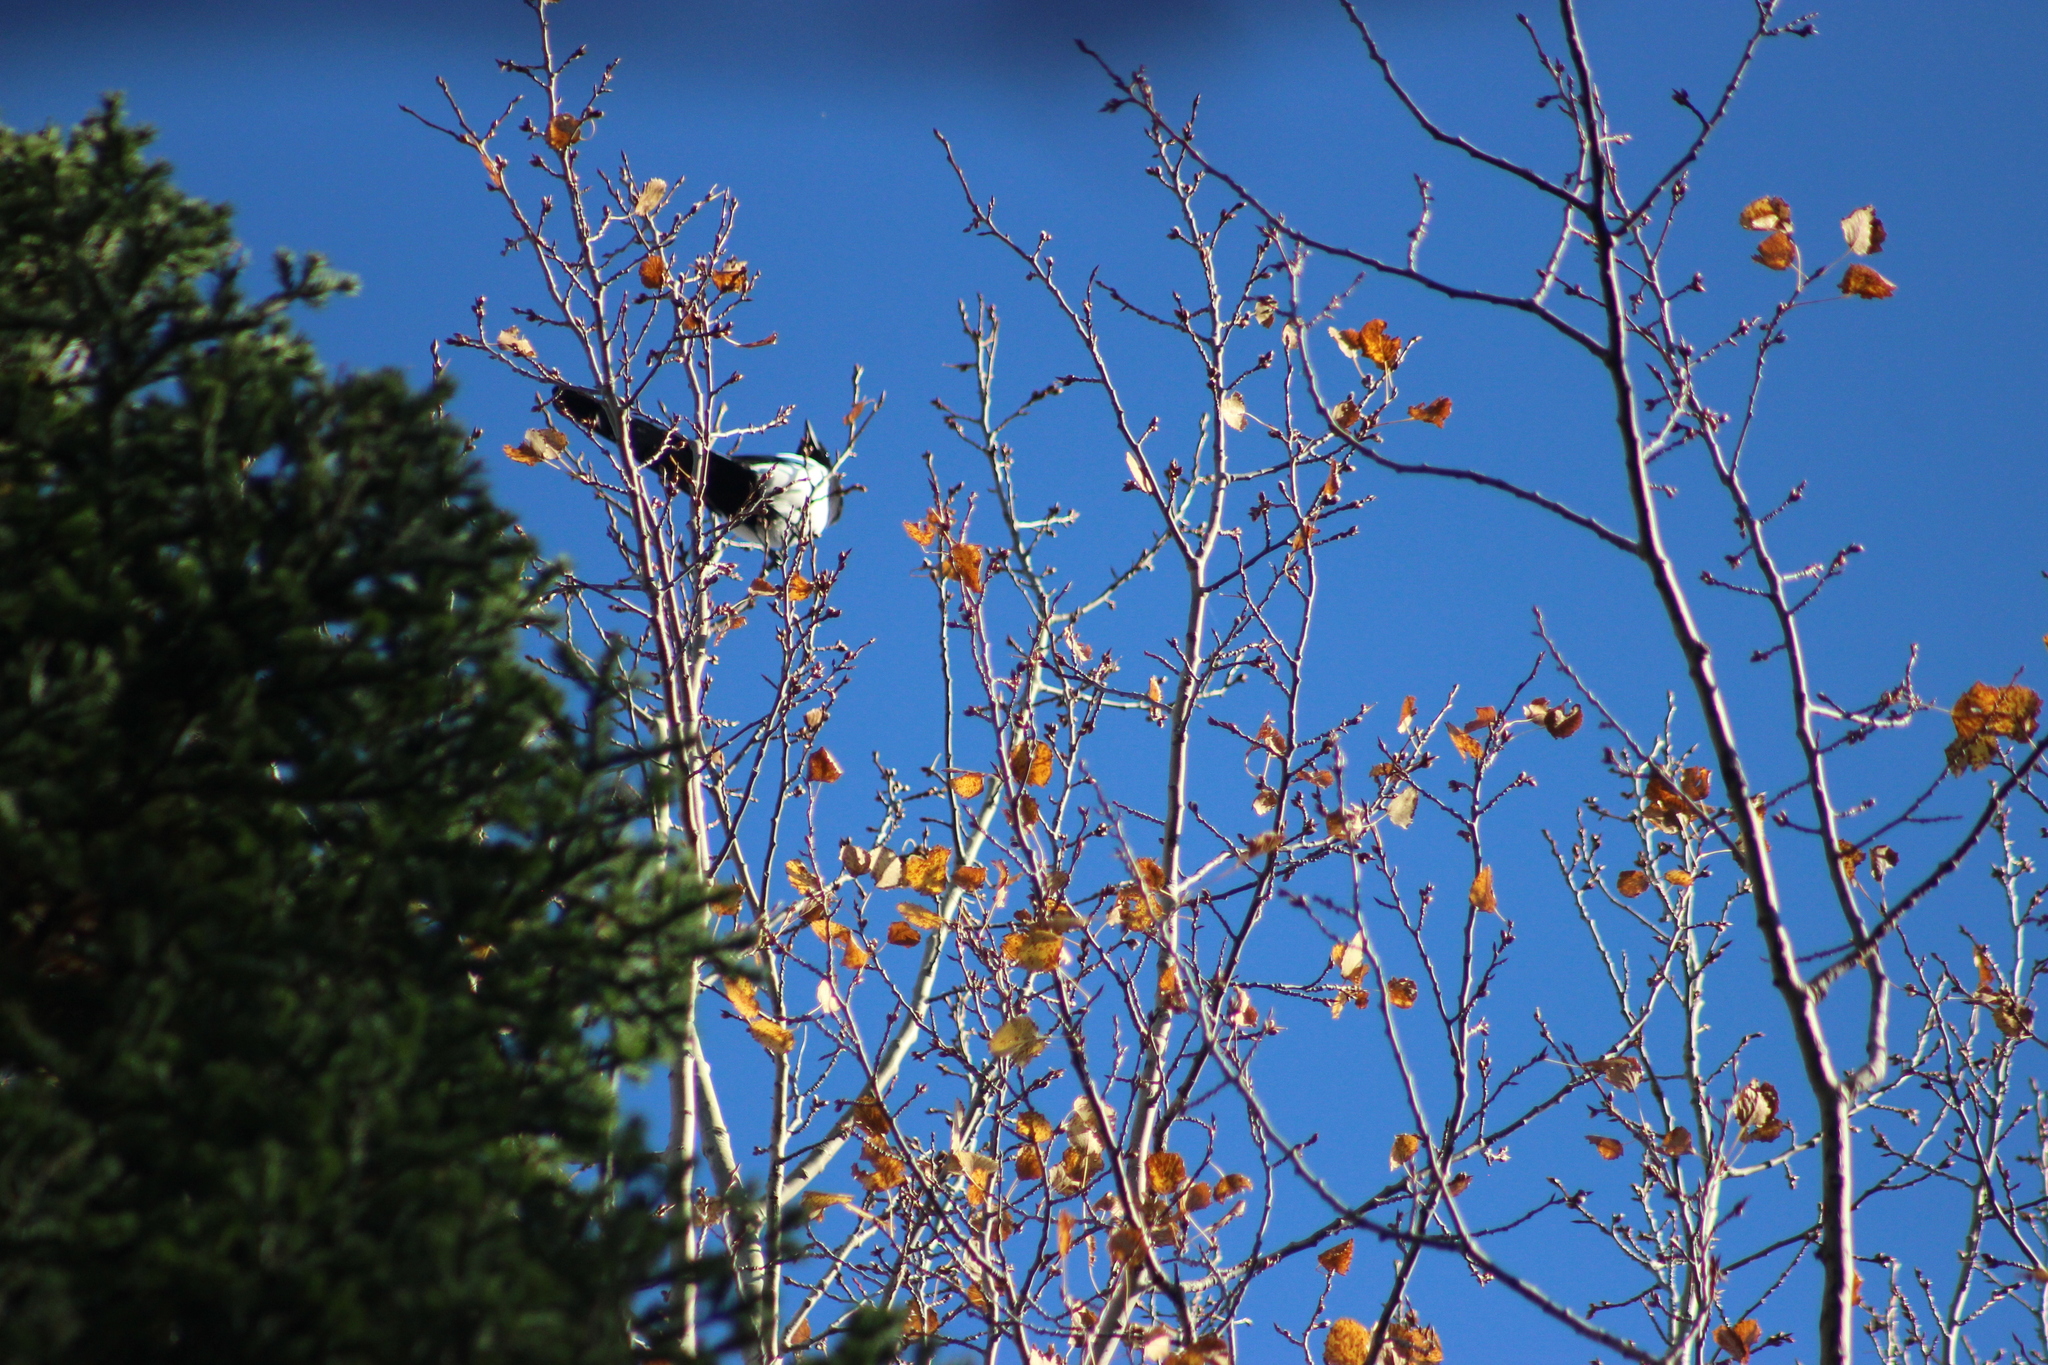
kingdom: Animalia
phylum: Chordata
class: Aves
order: Passeriformes
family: Corvidae
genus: Pica
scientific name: Pica pica
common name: Eurasian magpie
